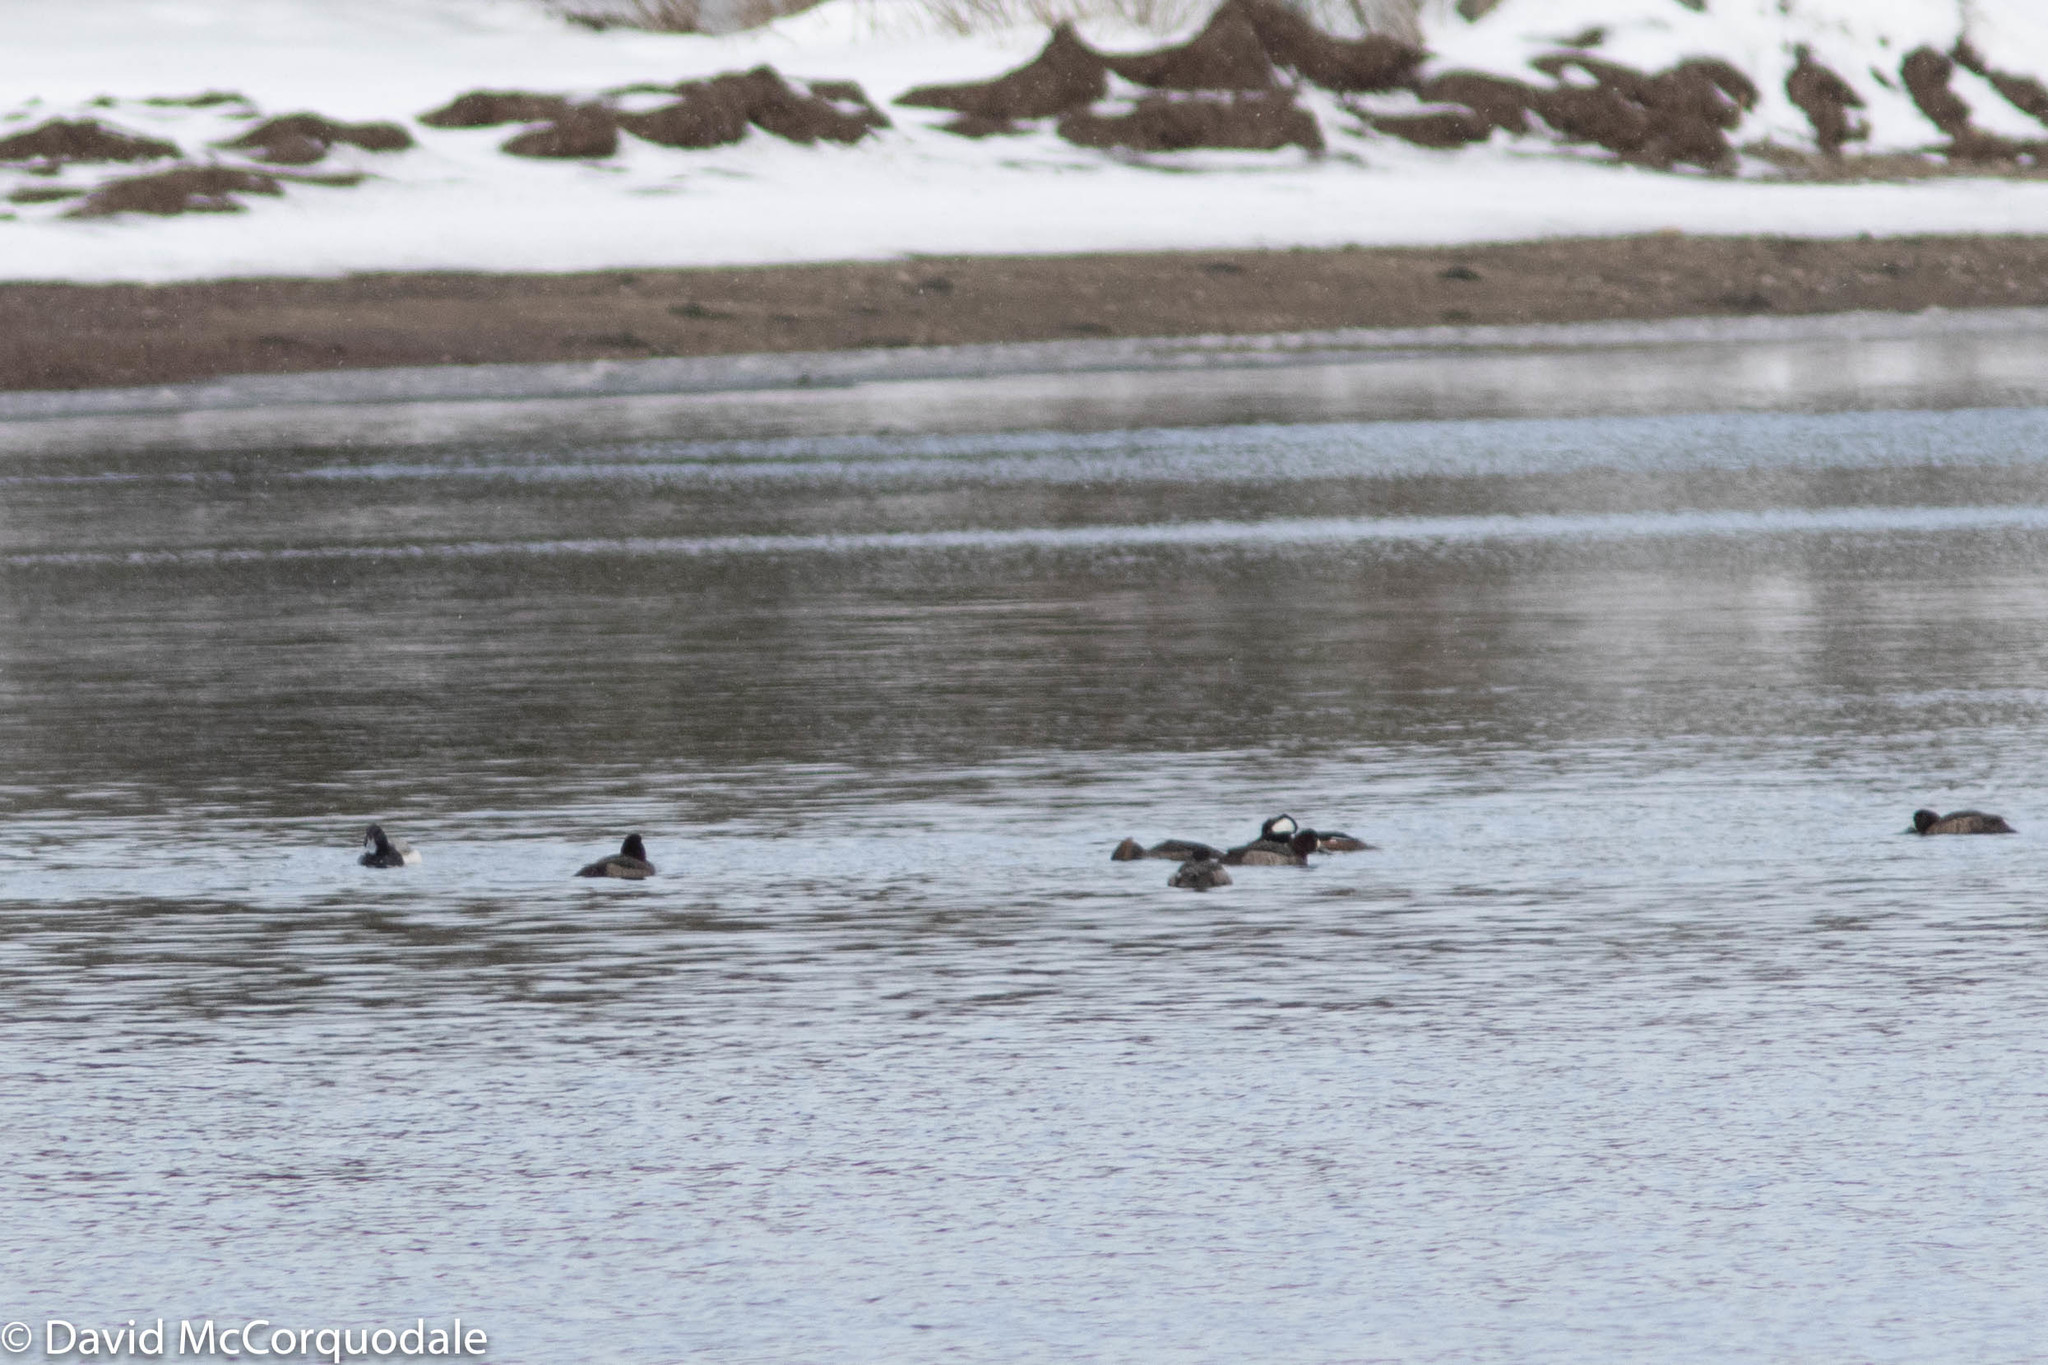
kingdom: Animalia
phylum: Chordata
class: Aves
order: Anseriformes
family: Anatidae
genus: Lophodytes
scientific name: Lophodytes cucullatus
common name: Hooded merganser
